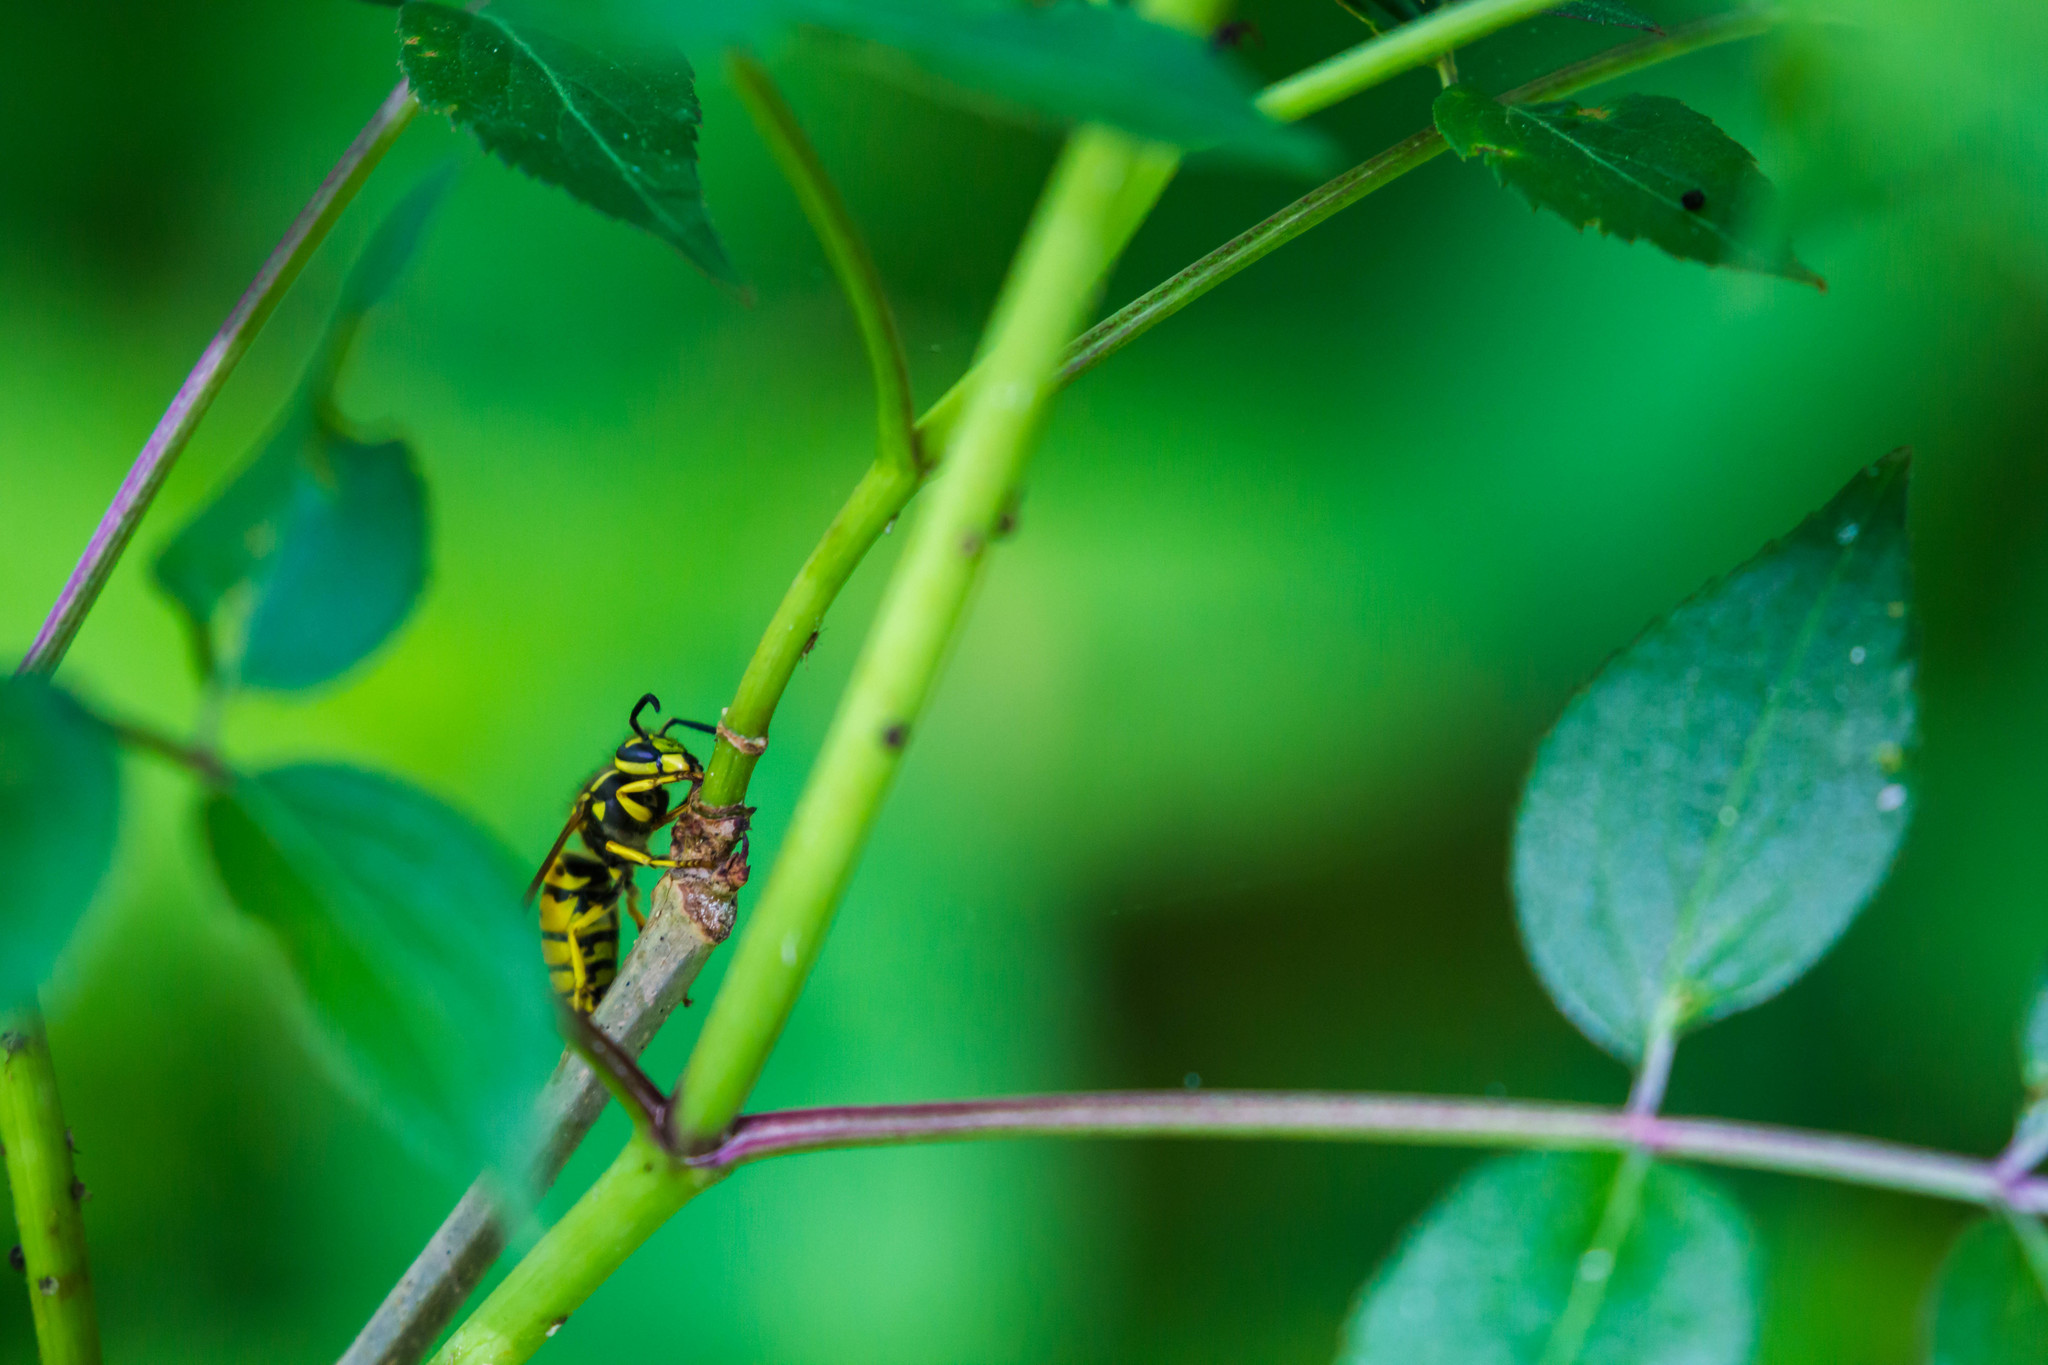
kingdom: Animalia
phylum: Arthropoda
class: Insecta
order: Hymenoptera
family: Vespidae
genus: Vespula
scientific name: Vespula maculifrons
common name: Eastern yellowjacket
